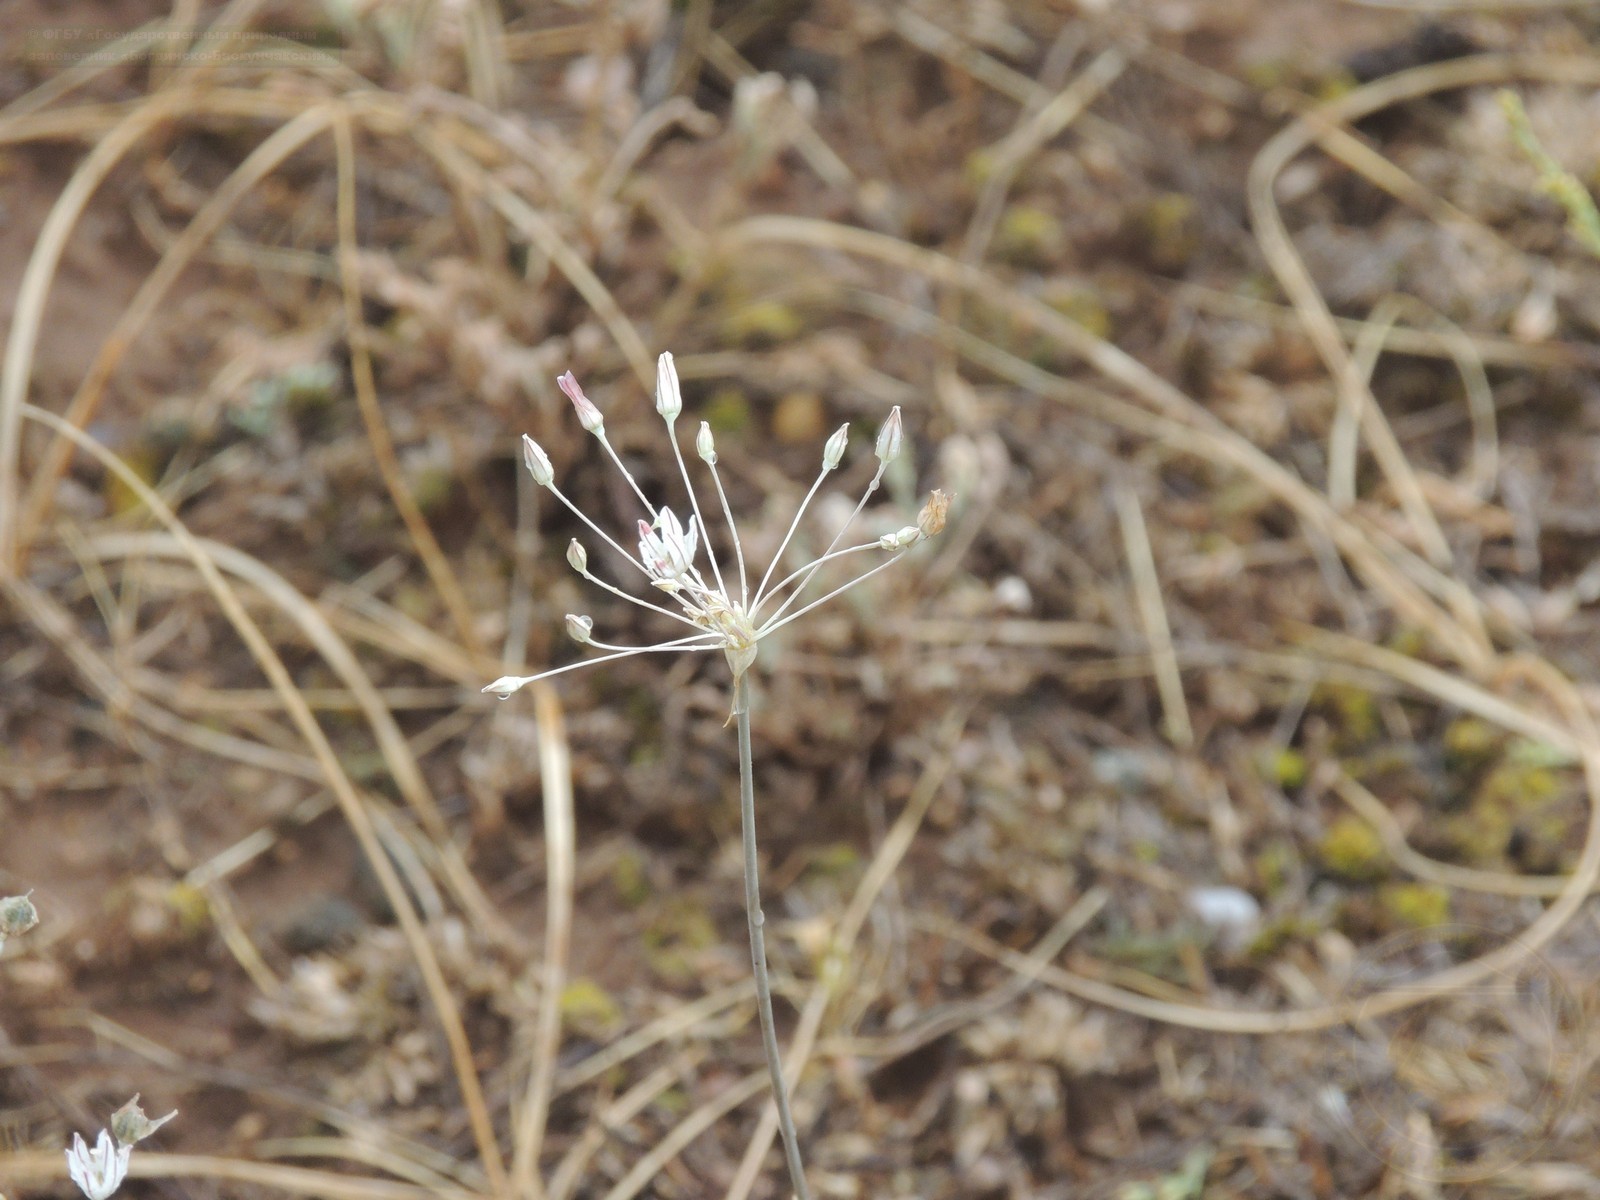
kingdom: Plantae
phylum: Tracheophyta
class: Liliopsida
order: Asparagales
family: Amaryllidaceae
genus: Allium
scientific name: Allium inaequale
